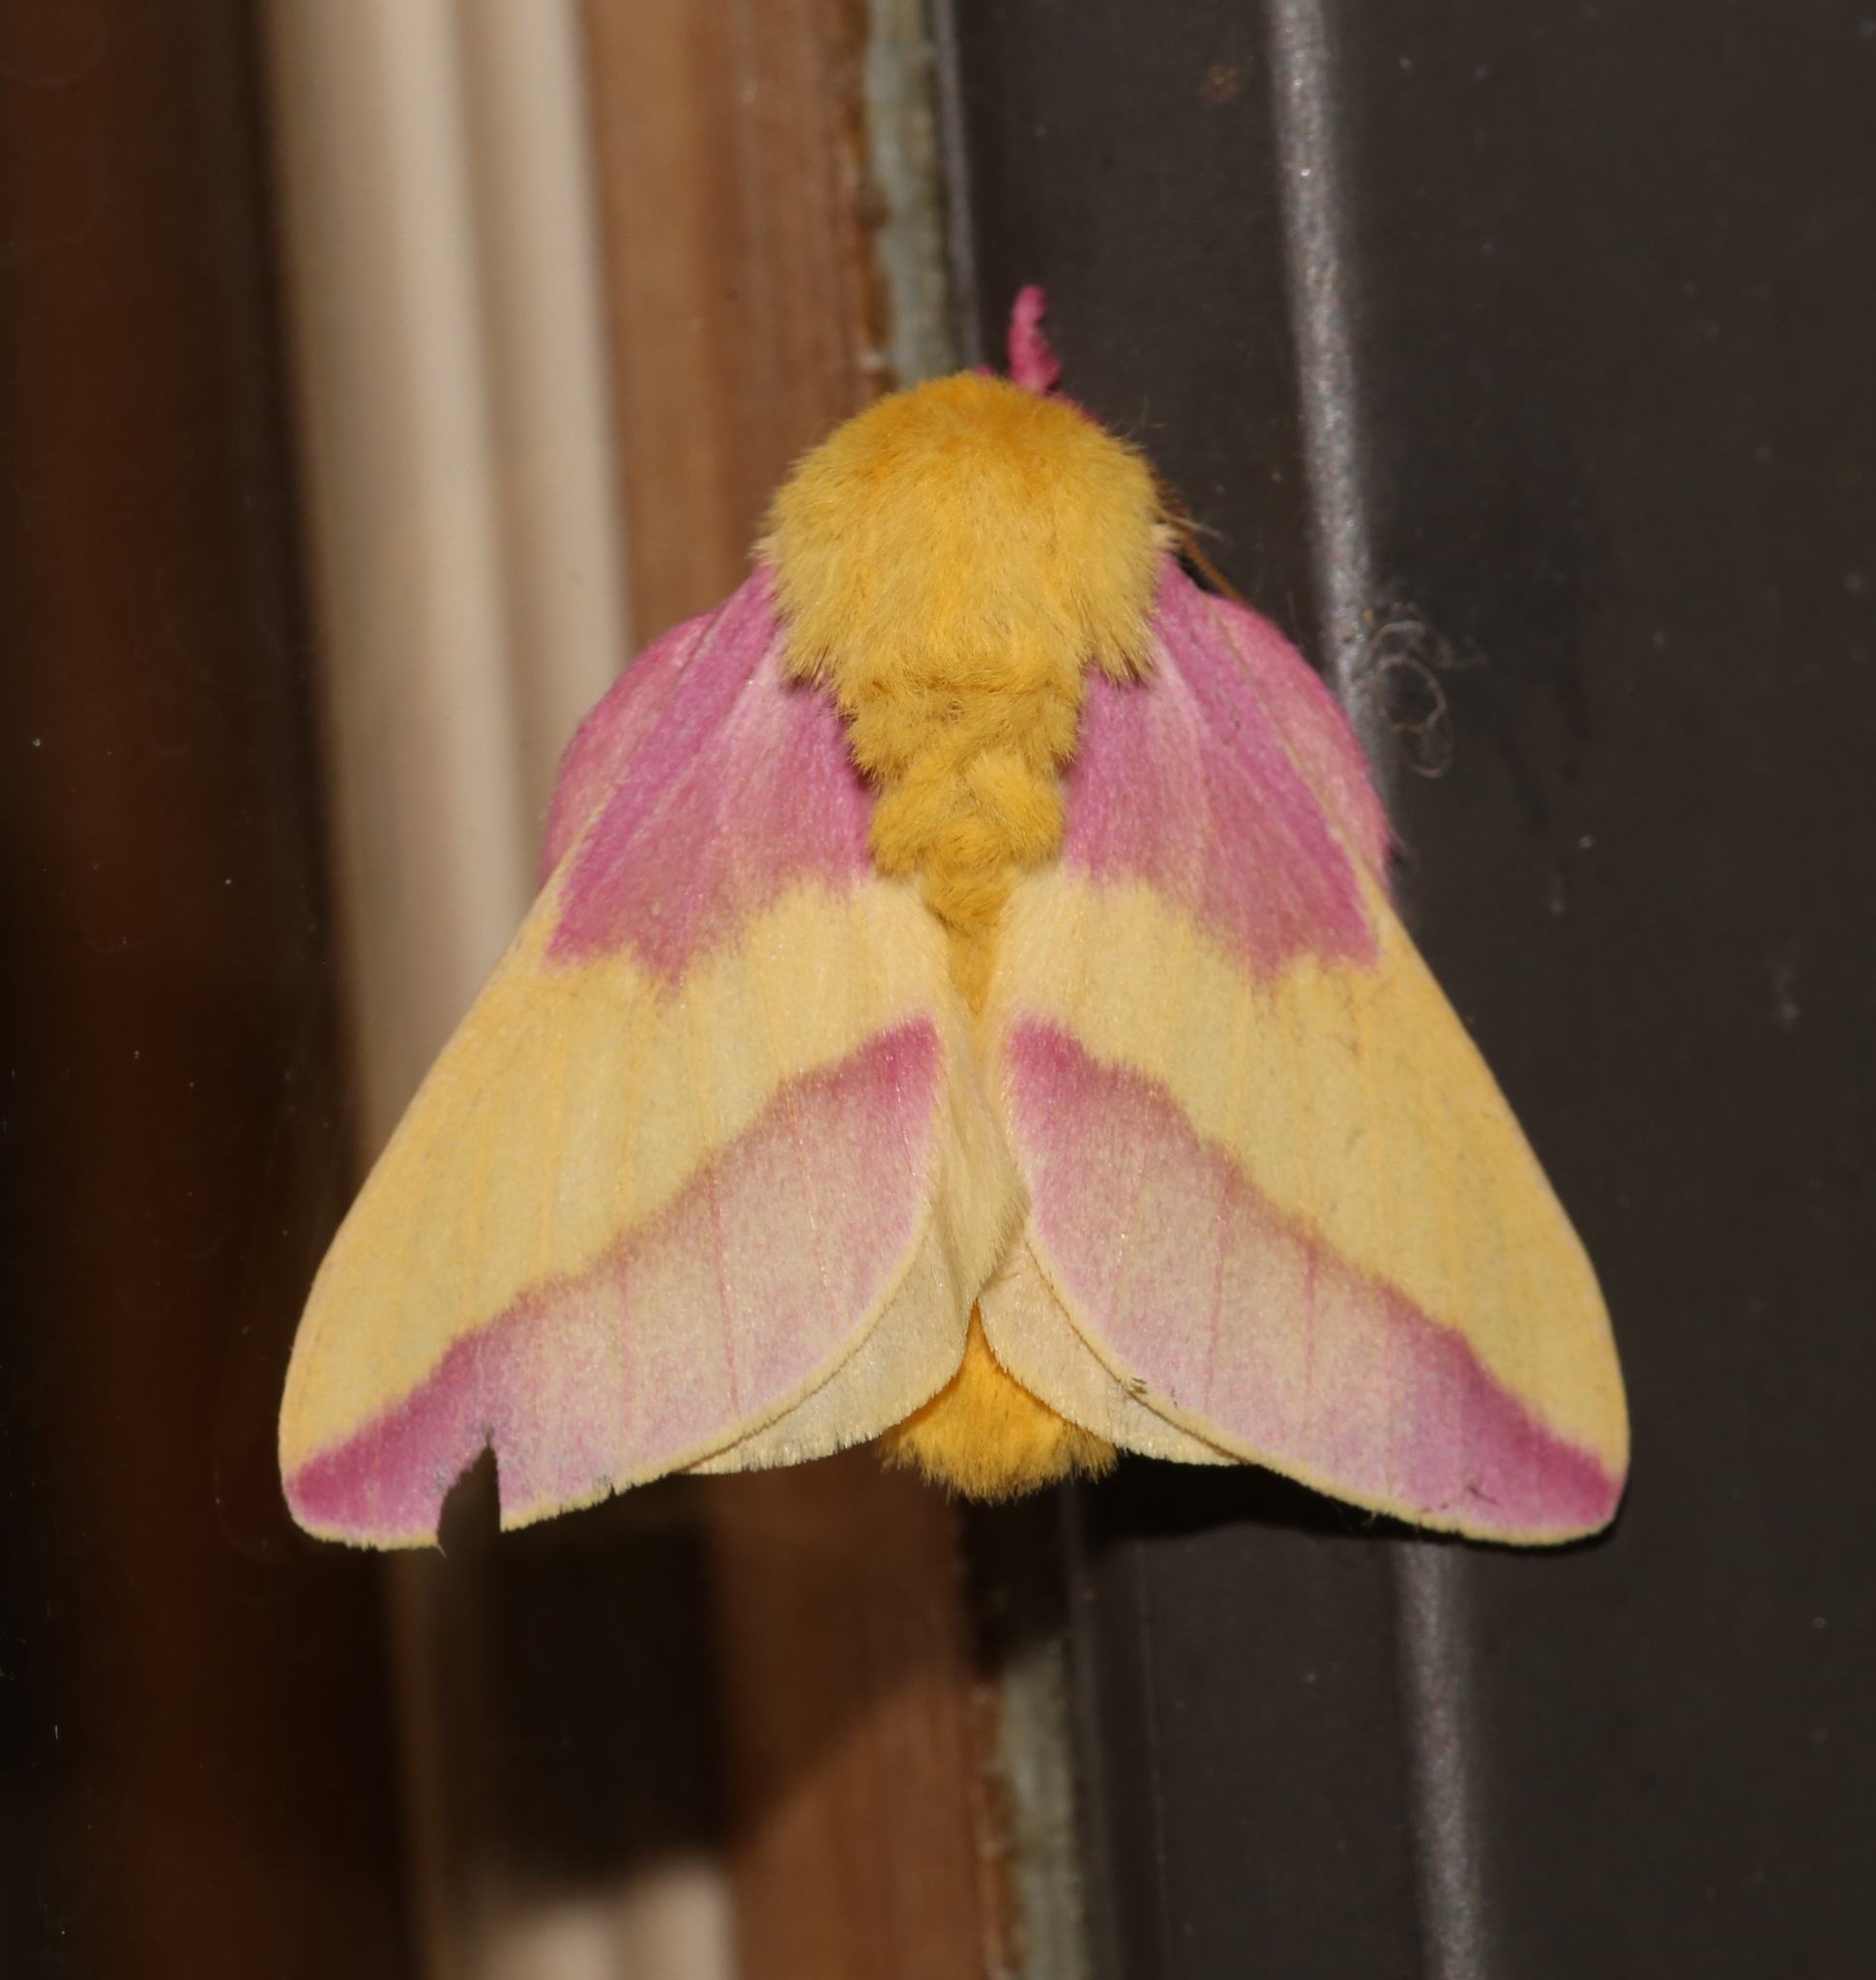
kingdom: Animalia
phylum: Arthropoda
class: Insecta
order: Lepidoptera
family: Saturniidae
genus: Dryocampa
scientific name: Dryocampa rubicunda
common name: Rosy maple moth
